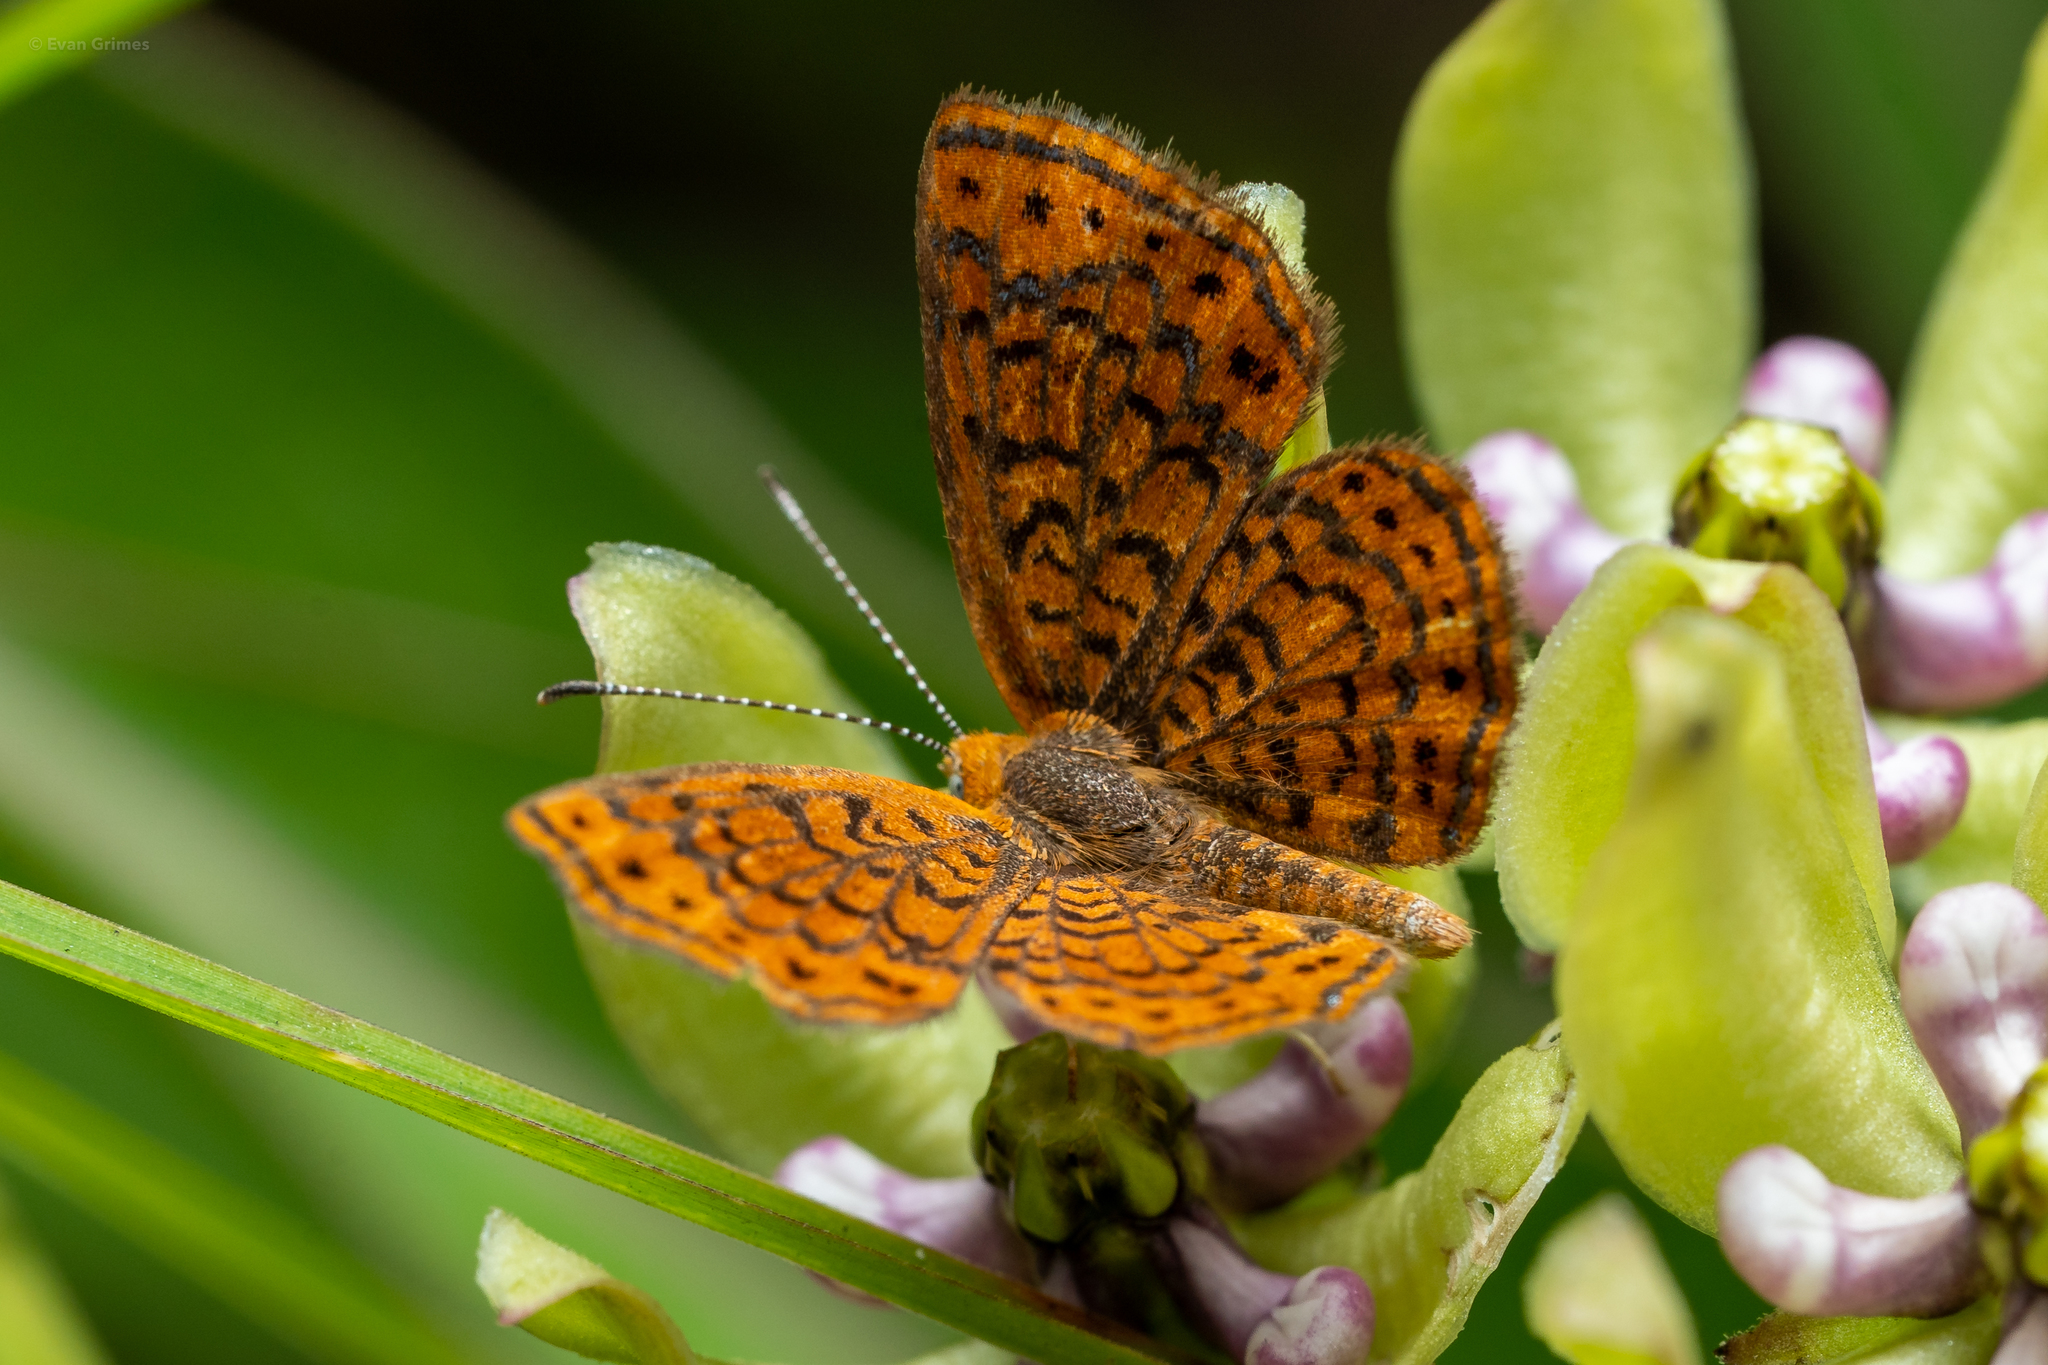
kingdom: Animalia
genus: Calephelis
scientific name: Calephelis virginiensis
